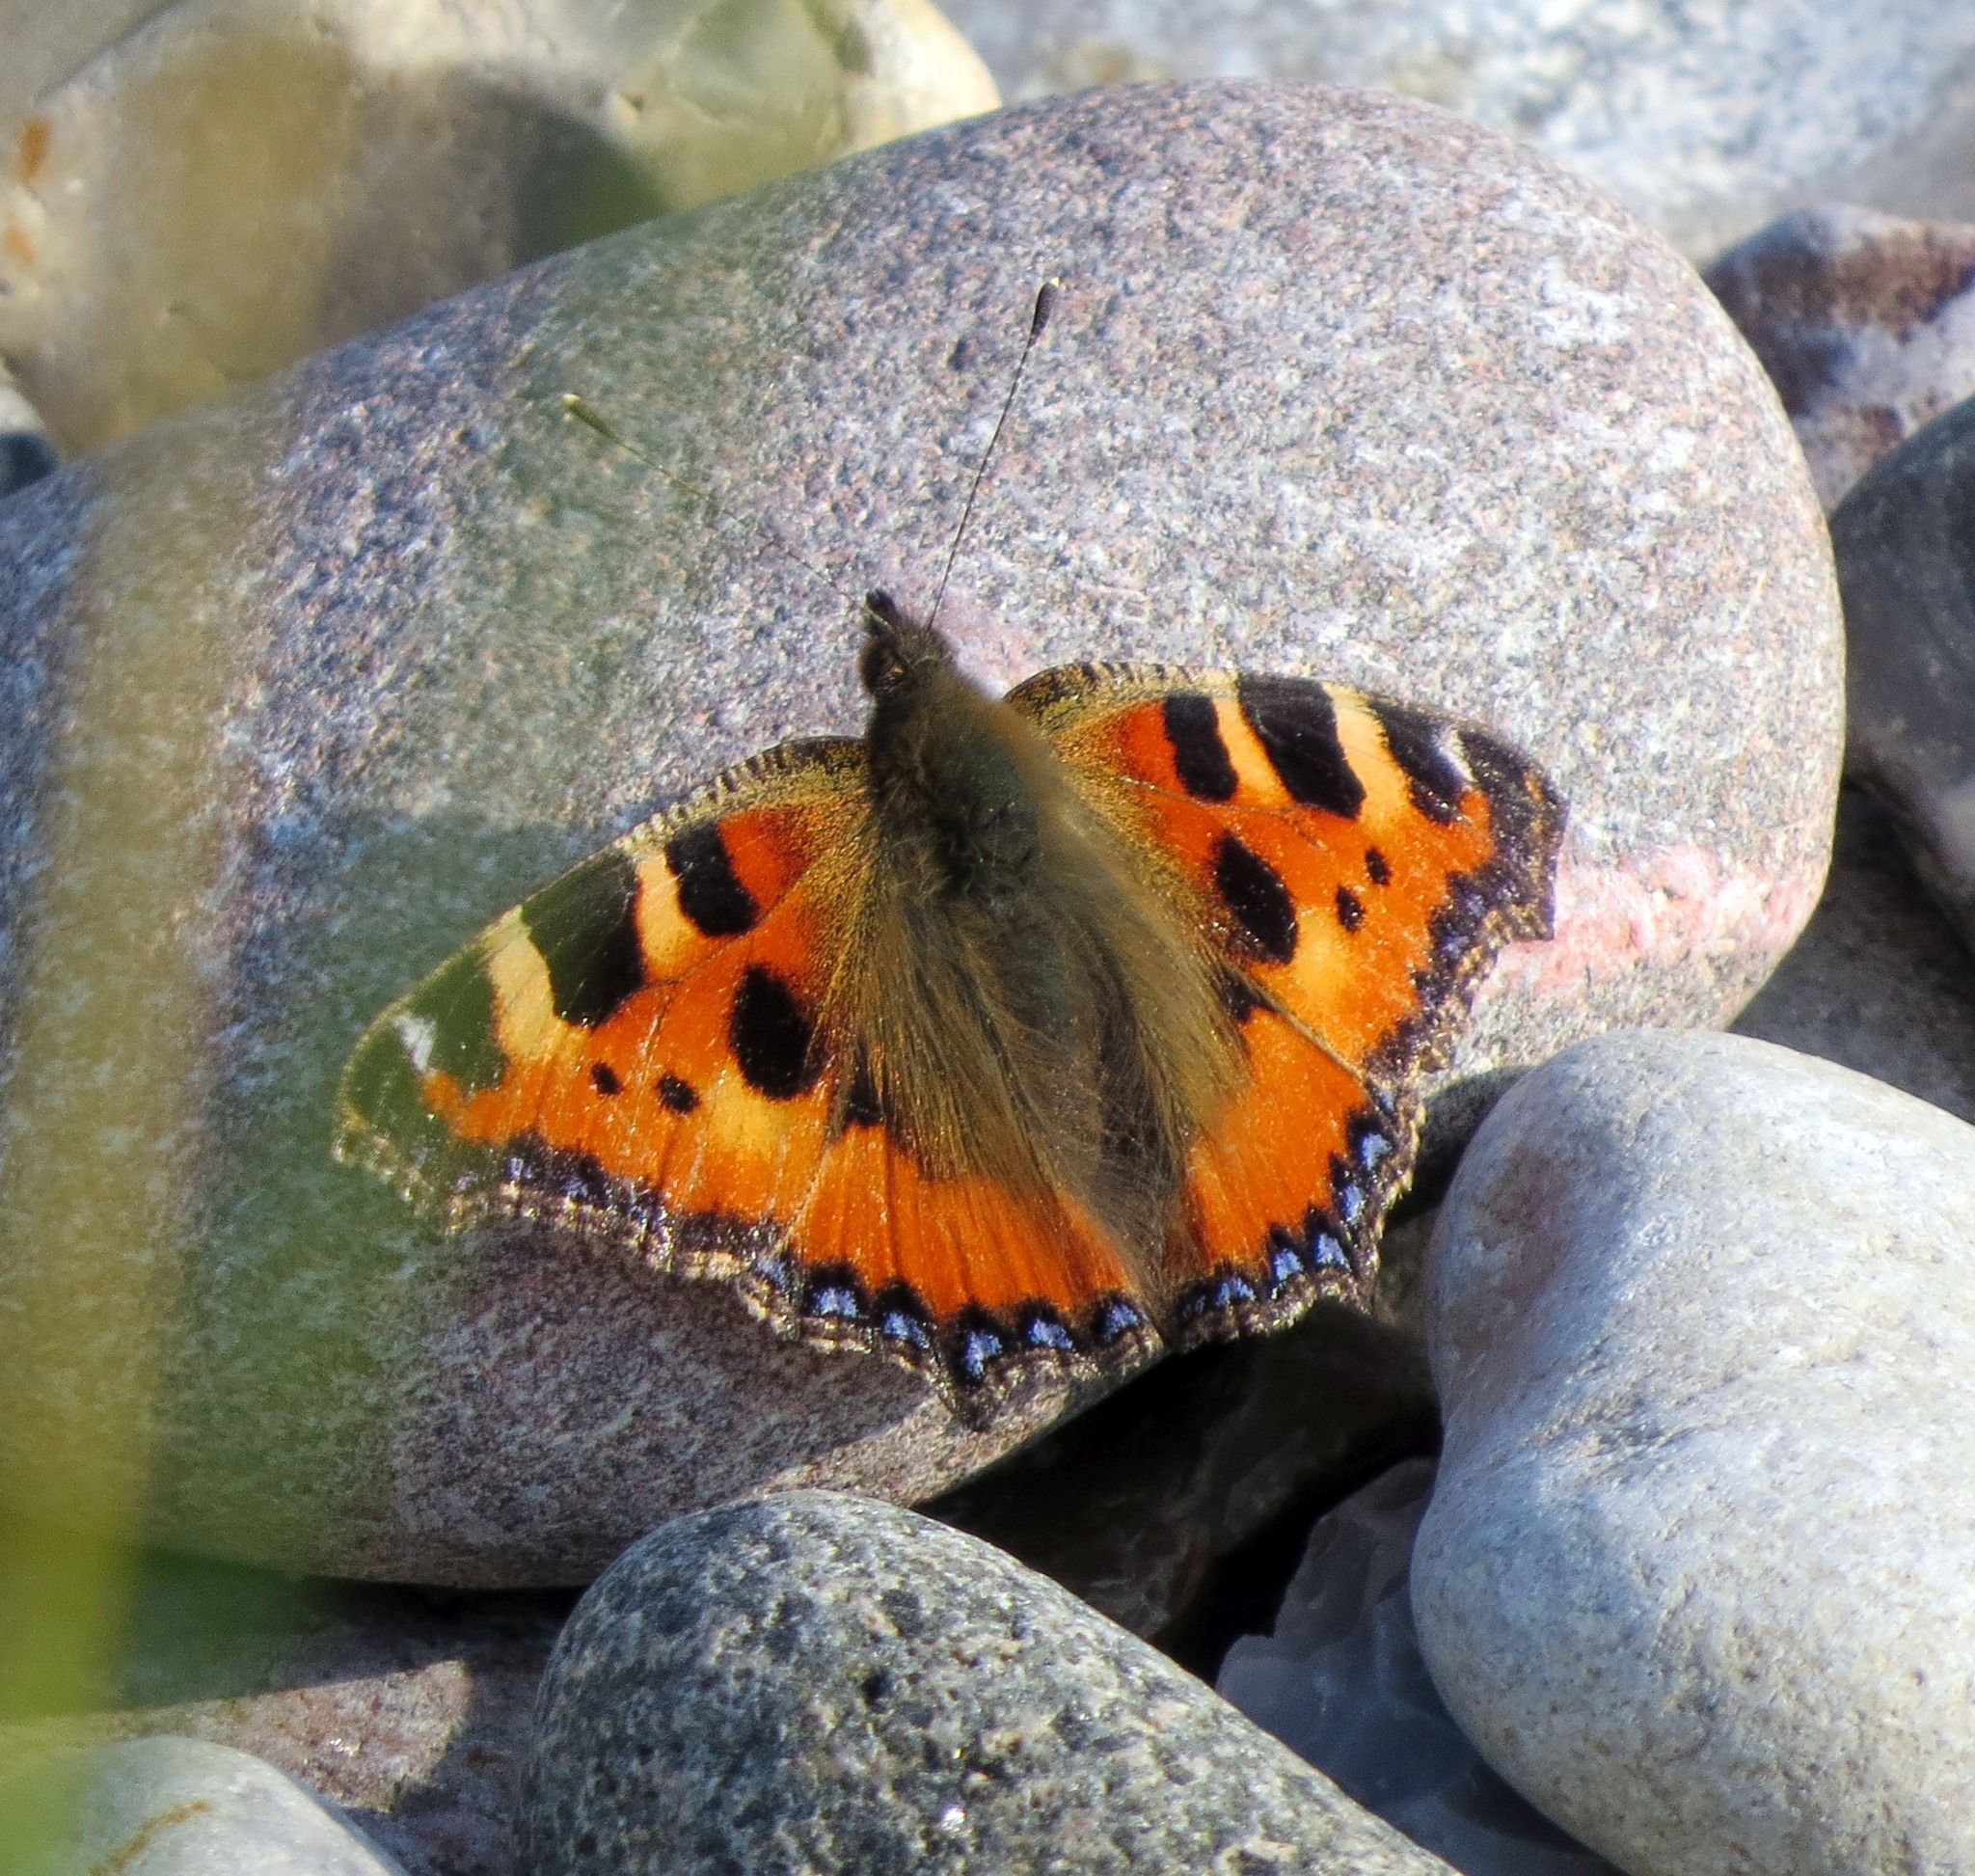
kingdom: Animalia
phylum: Arthropoda
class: Insecta
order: Lepidoptera
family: Nymphalidae
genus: Aglais
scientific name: Aglais urticae
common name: Small tortoiseshell
